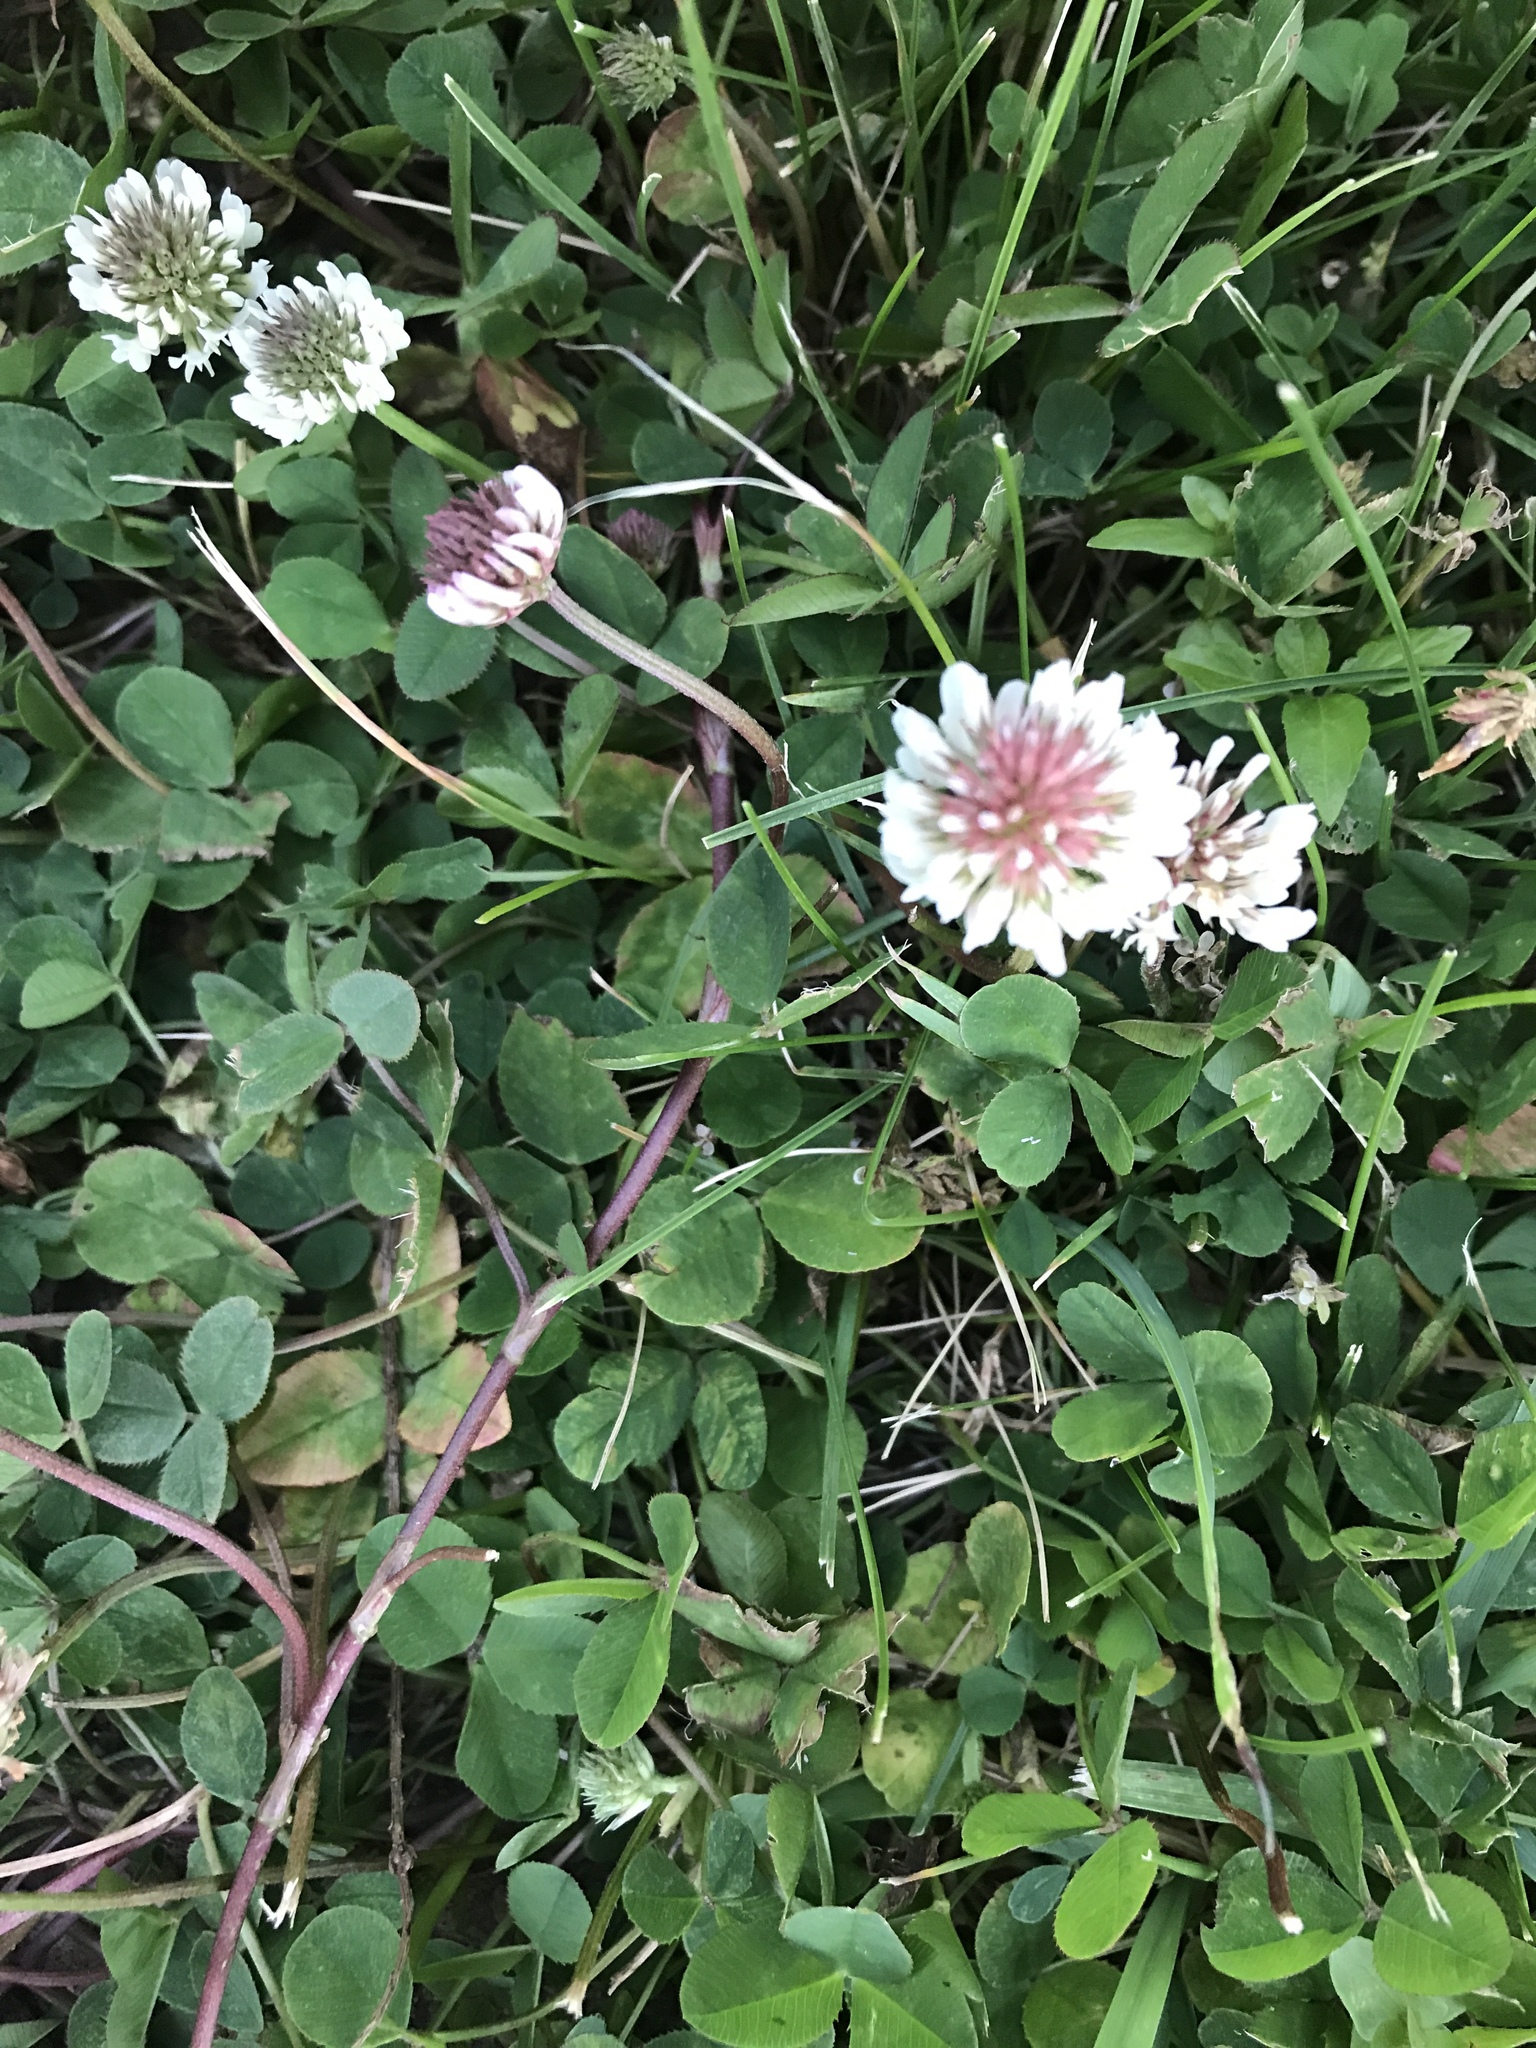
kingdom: Plantae
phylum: Tracheophyta
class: Magnoliopsida
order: Fabales
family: Fabaceae
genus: Trifolium
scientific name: Trifolium repens
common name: White clover
